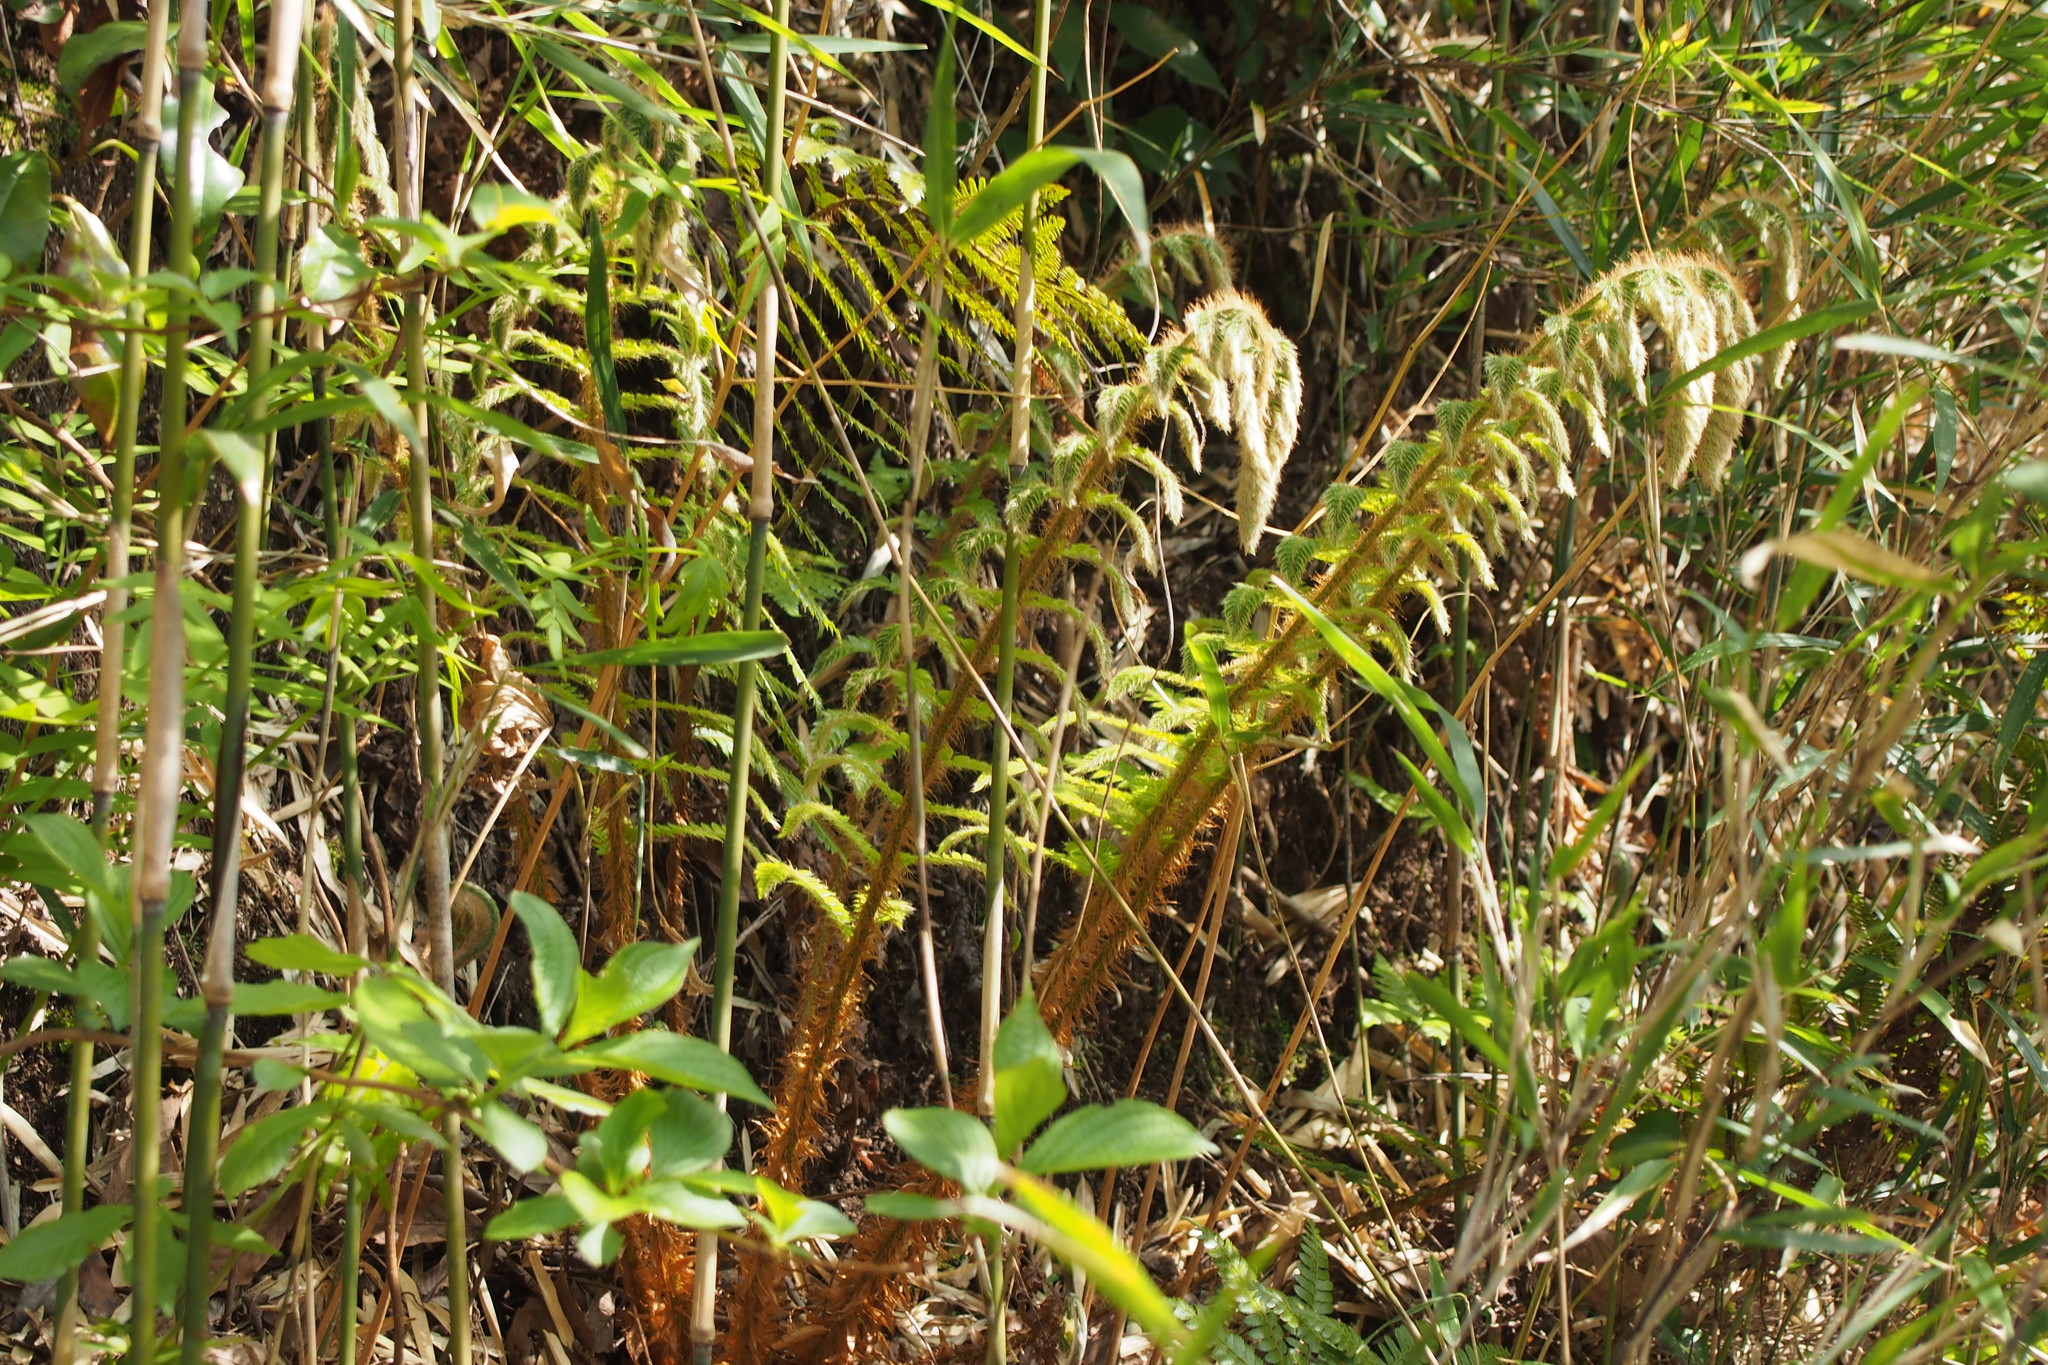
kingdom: Plantae
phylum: Tracheophyta
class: Polypodiopsida
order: Polypodiales
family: Dryopteridaceae
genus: Polystichum
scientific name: Polystichum luctuosum
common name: Korean rockfern
